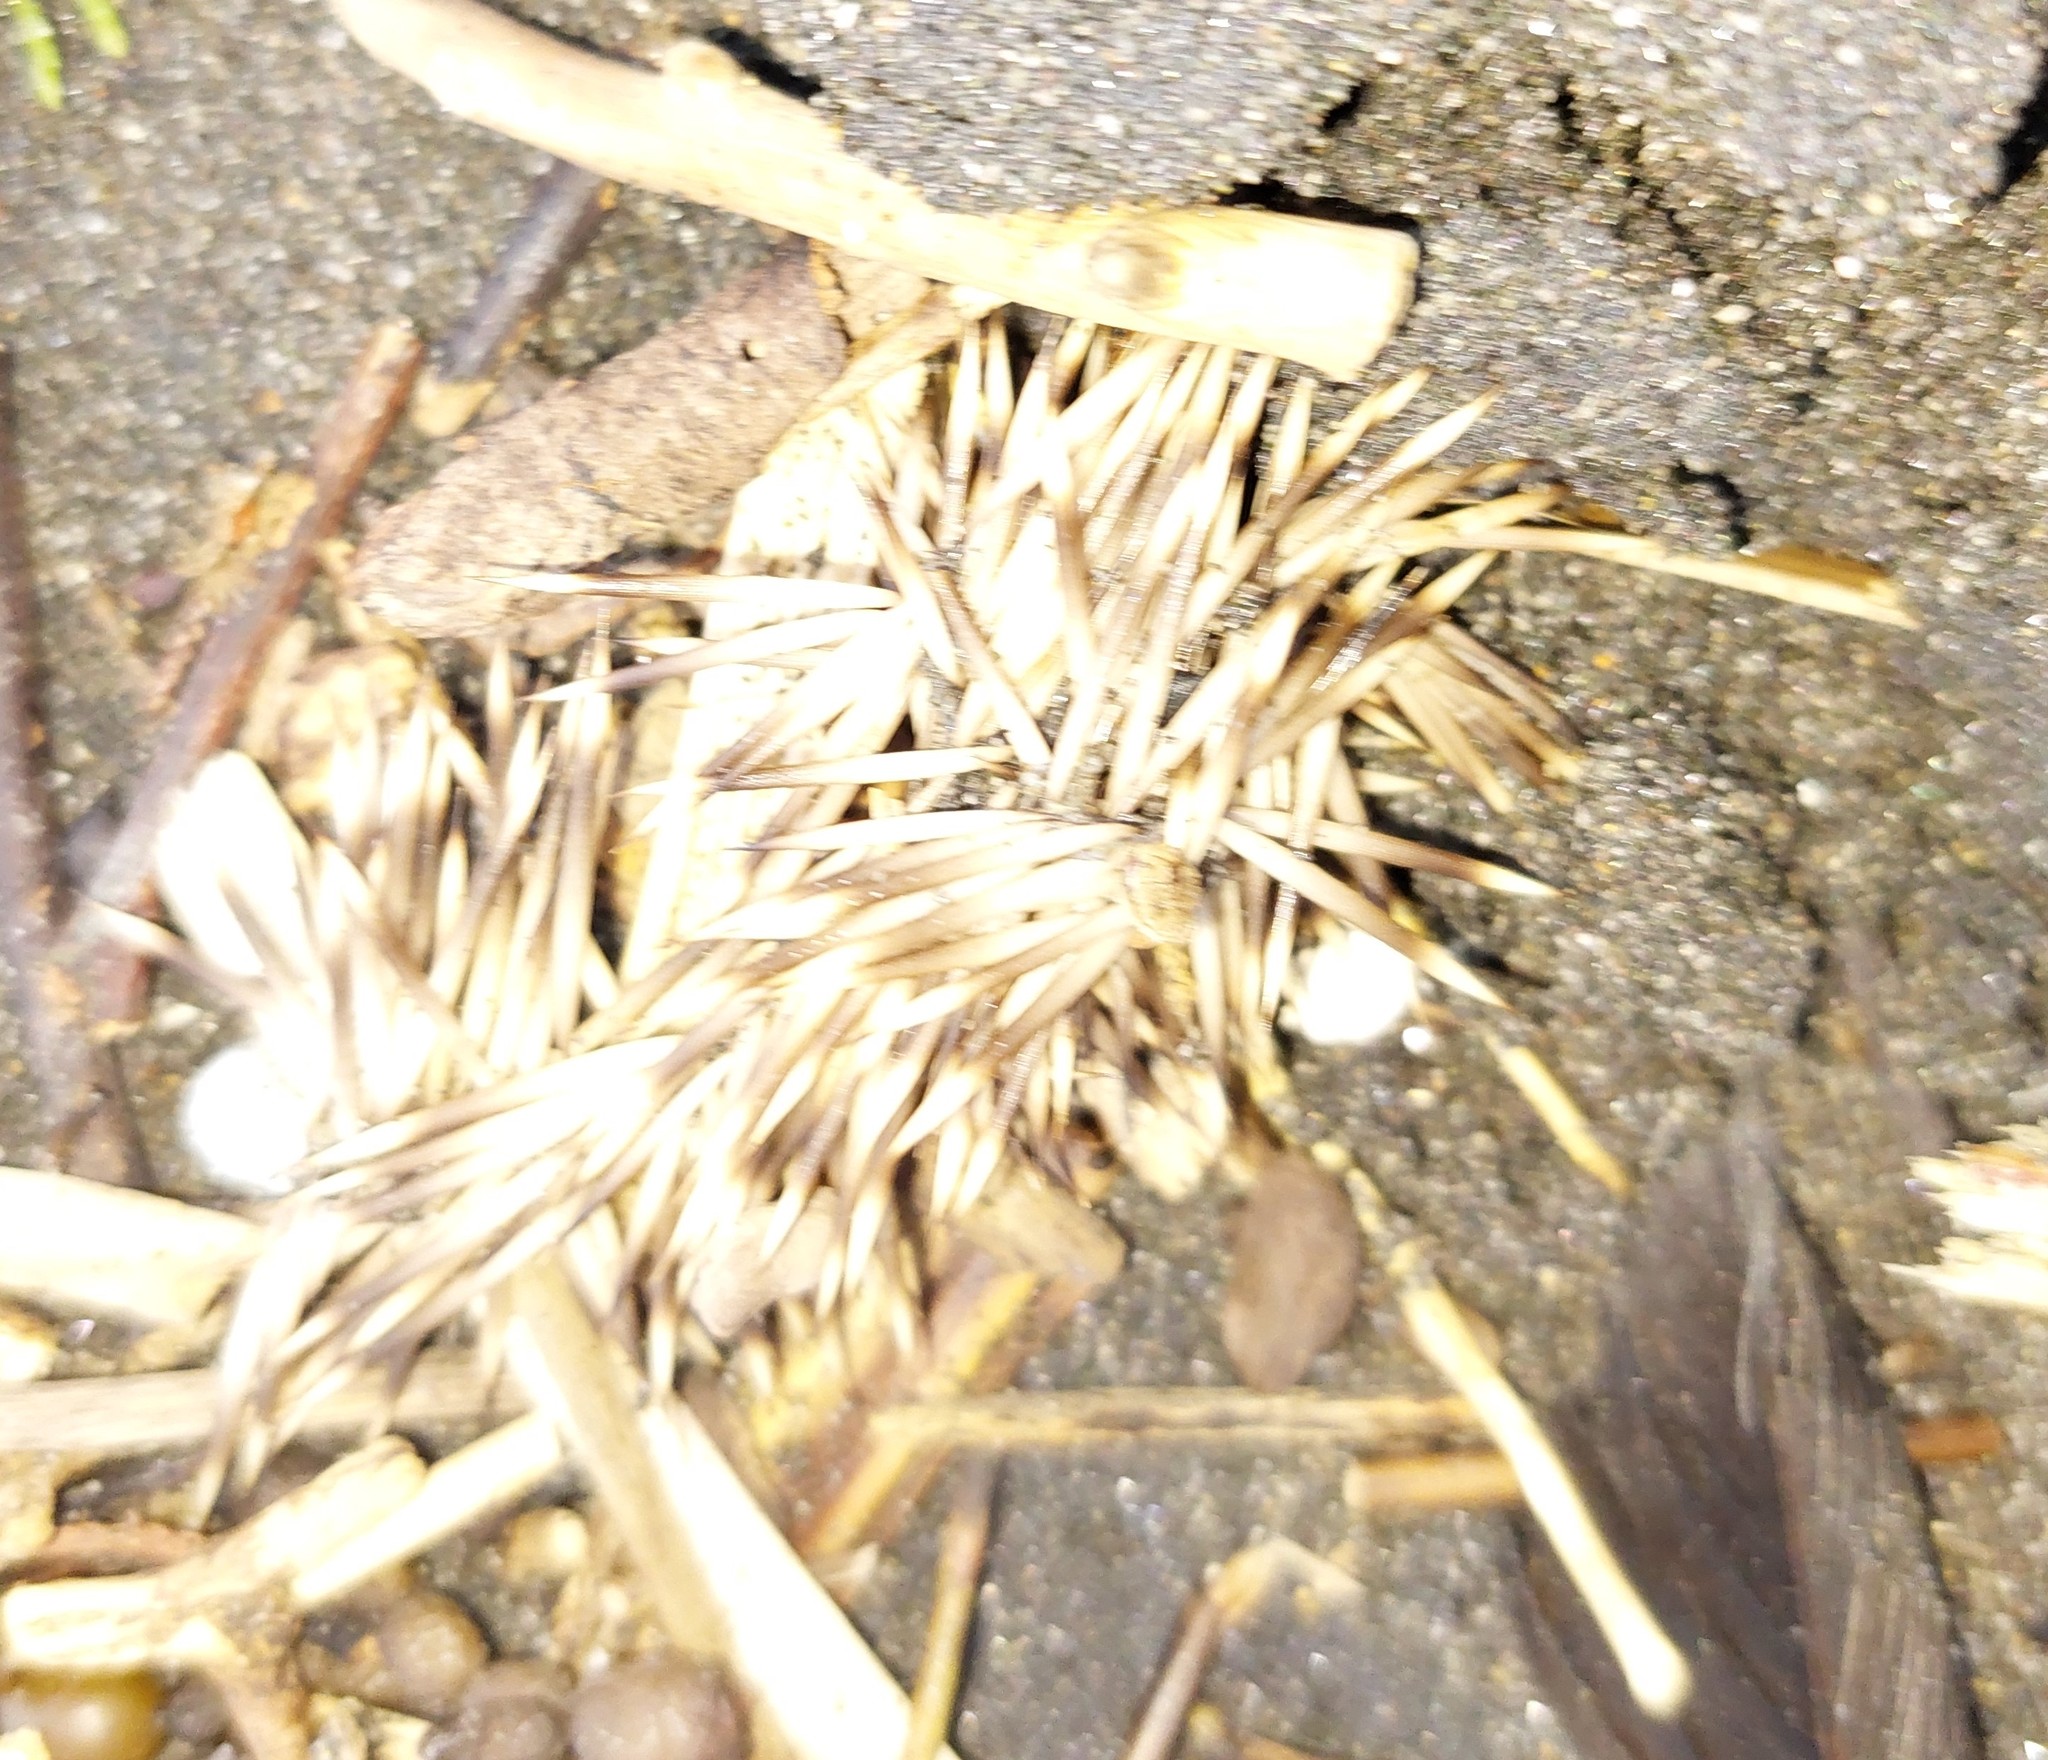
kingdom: Animalia
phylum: Chordata
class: Mammalia
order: Erinaceomorpha
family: Erinaceidae
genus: Erinaceus
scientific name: Erinaceus europaeus
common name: West european hedgehog
